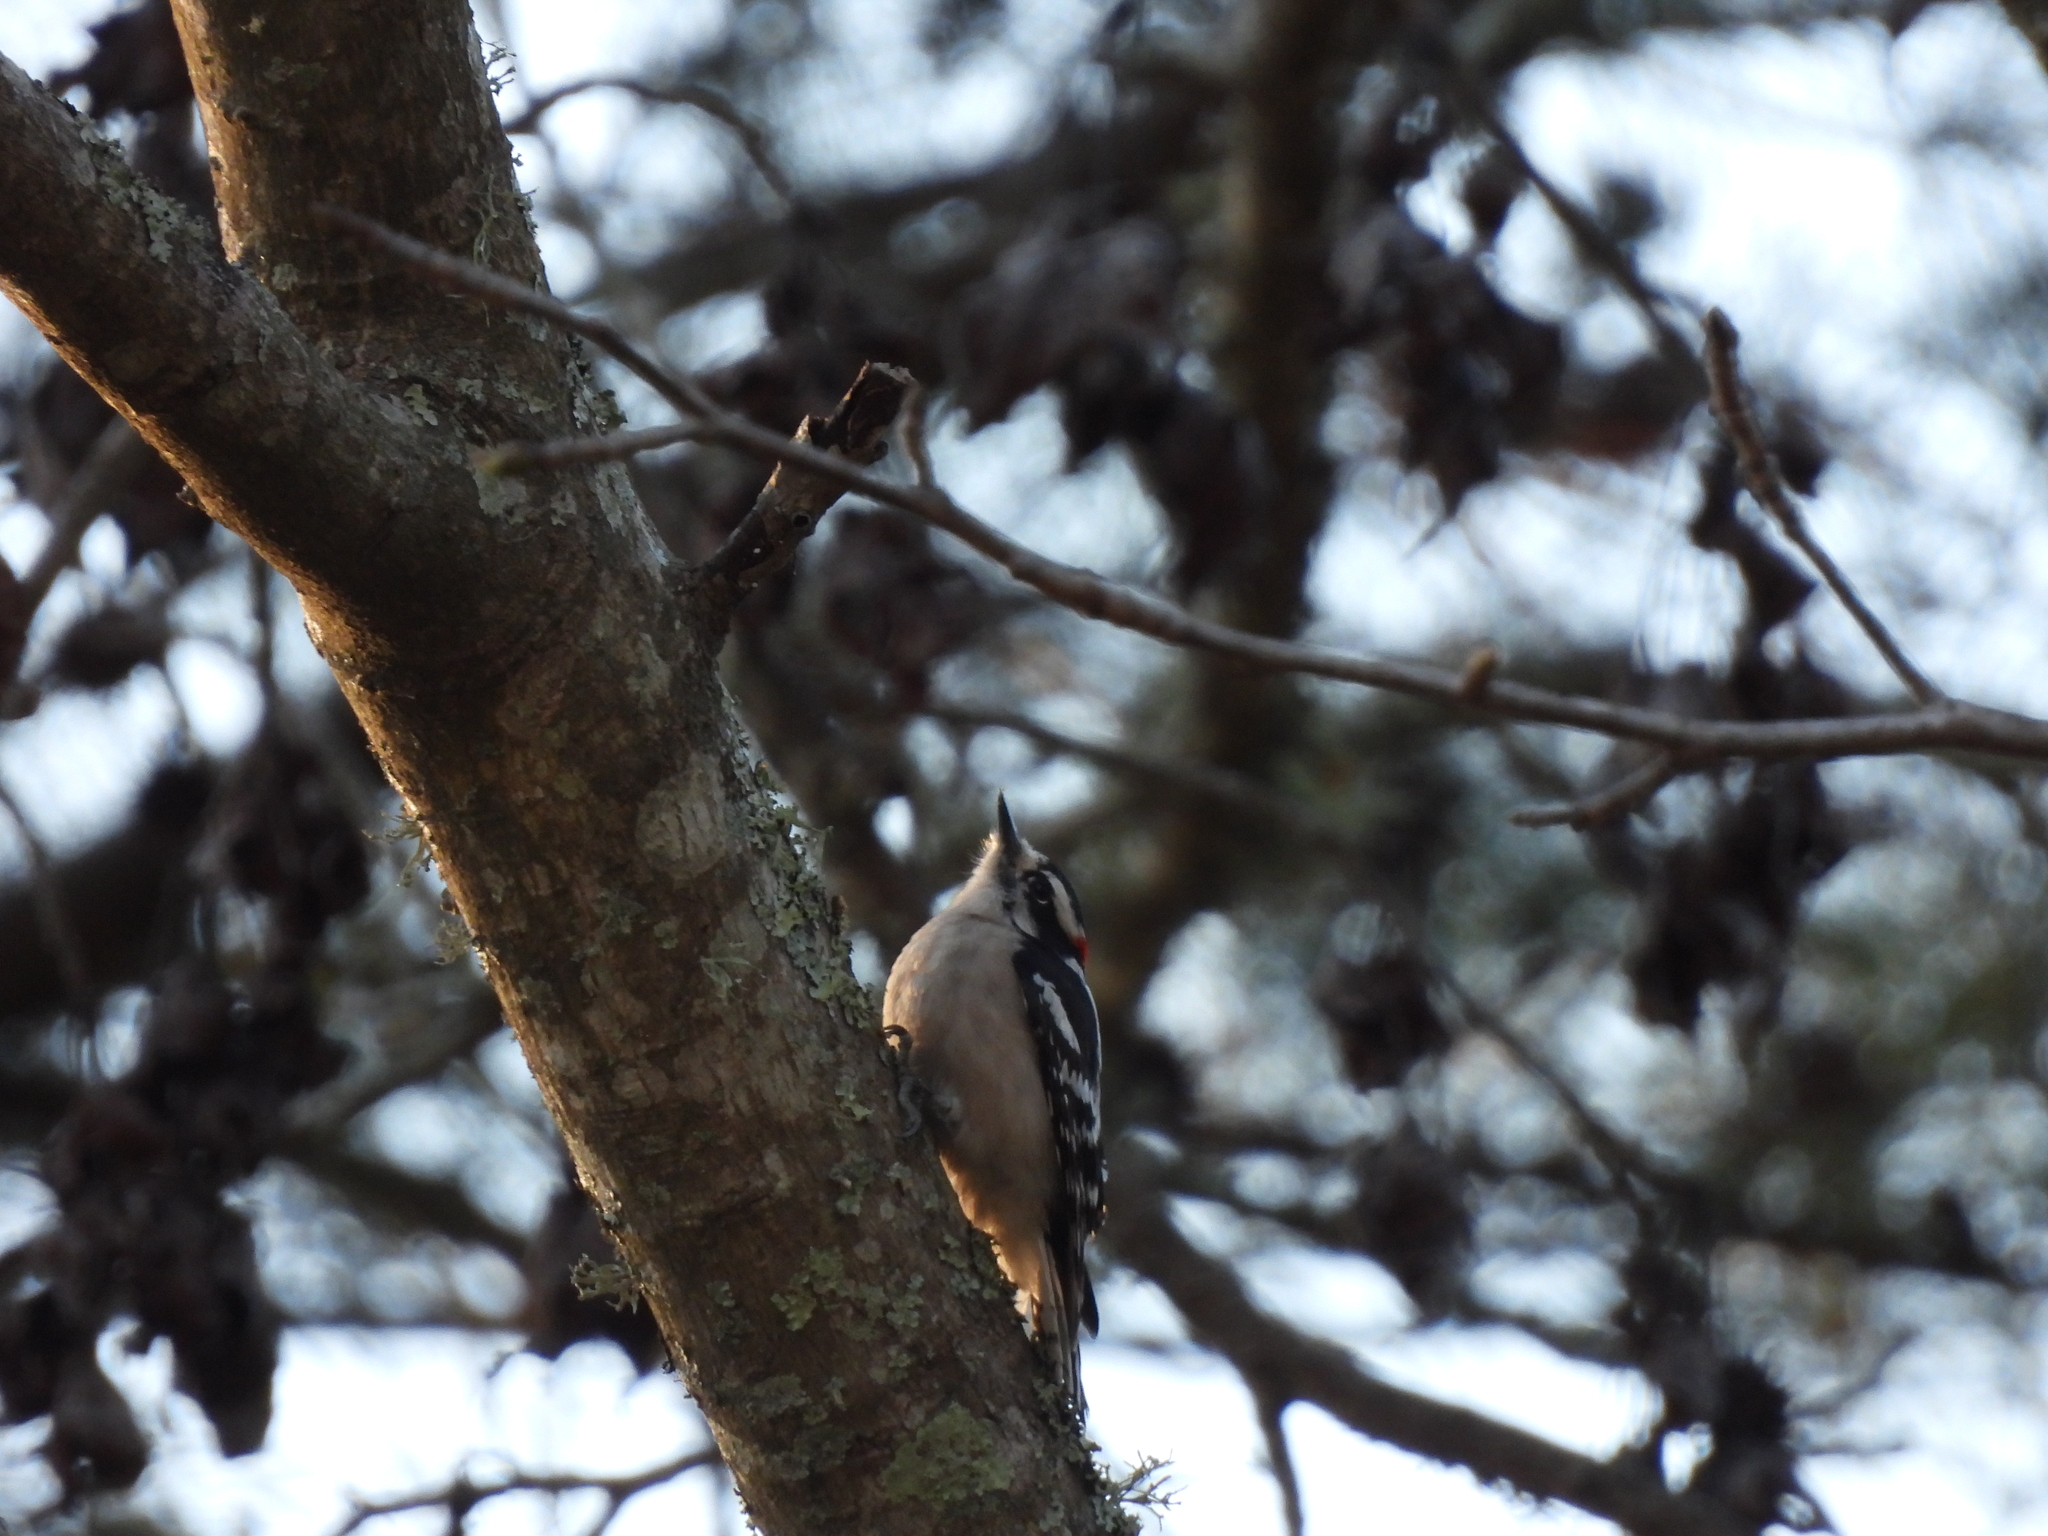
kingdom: Animalia
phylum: Chordata
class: Aves
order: Piciformes
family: Picidae
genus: Dryobates
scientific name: Dryobates pubescens
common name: Downy woodpecker
